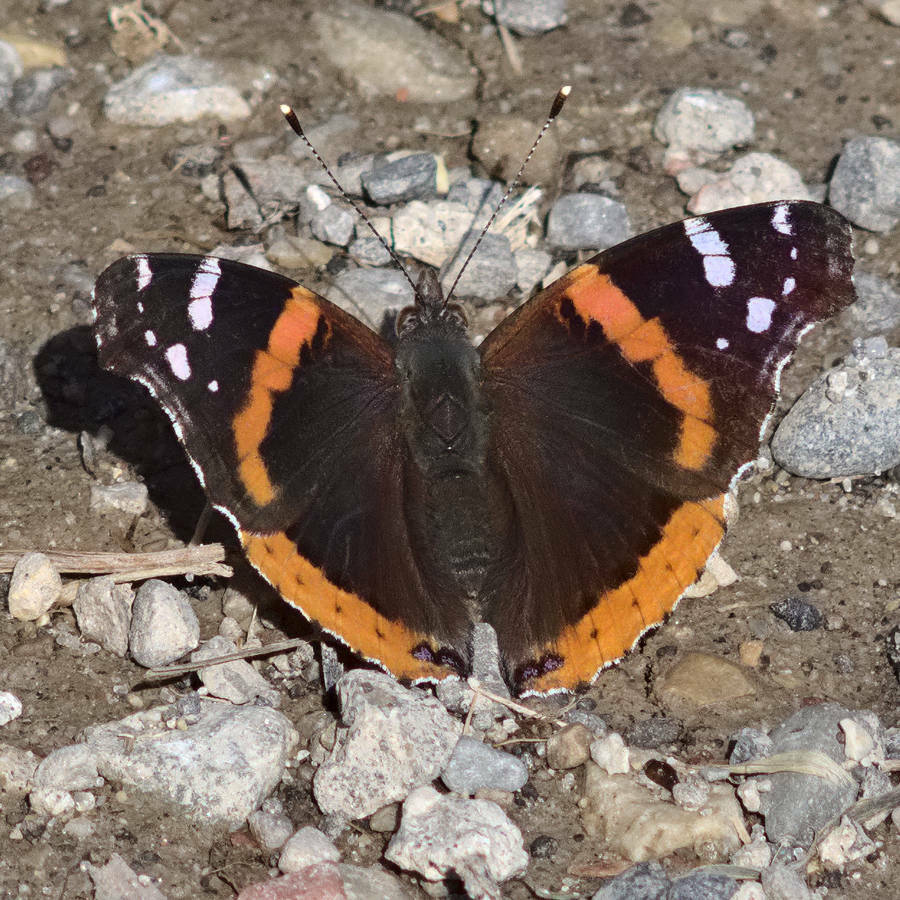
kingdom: Animalia
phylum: Arthropoda
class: Insecta
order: Lepidoptera
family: Nymphalidae
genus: Vanessa
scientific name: Vanessa atalanta
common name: Red admiral
